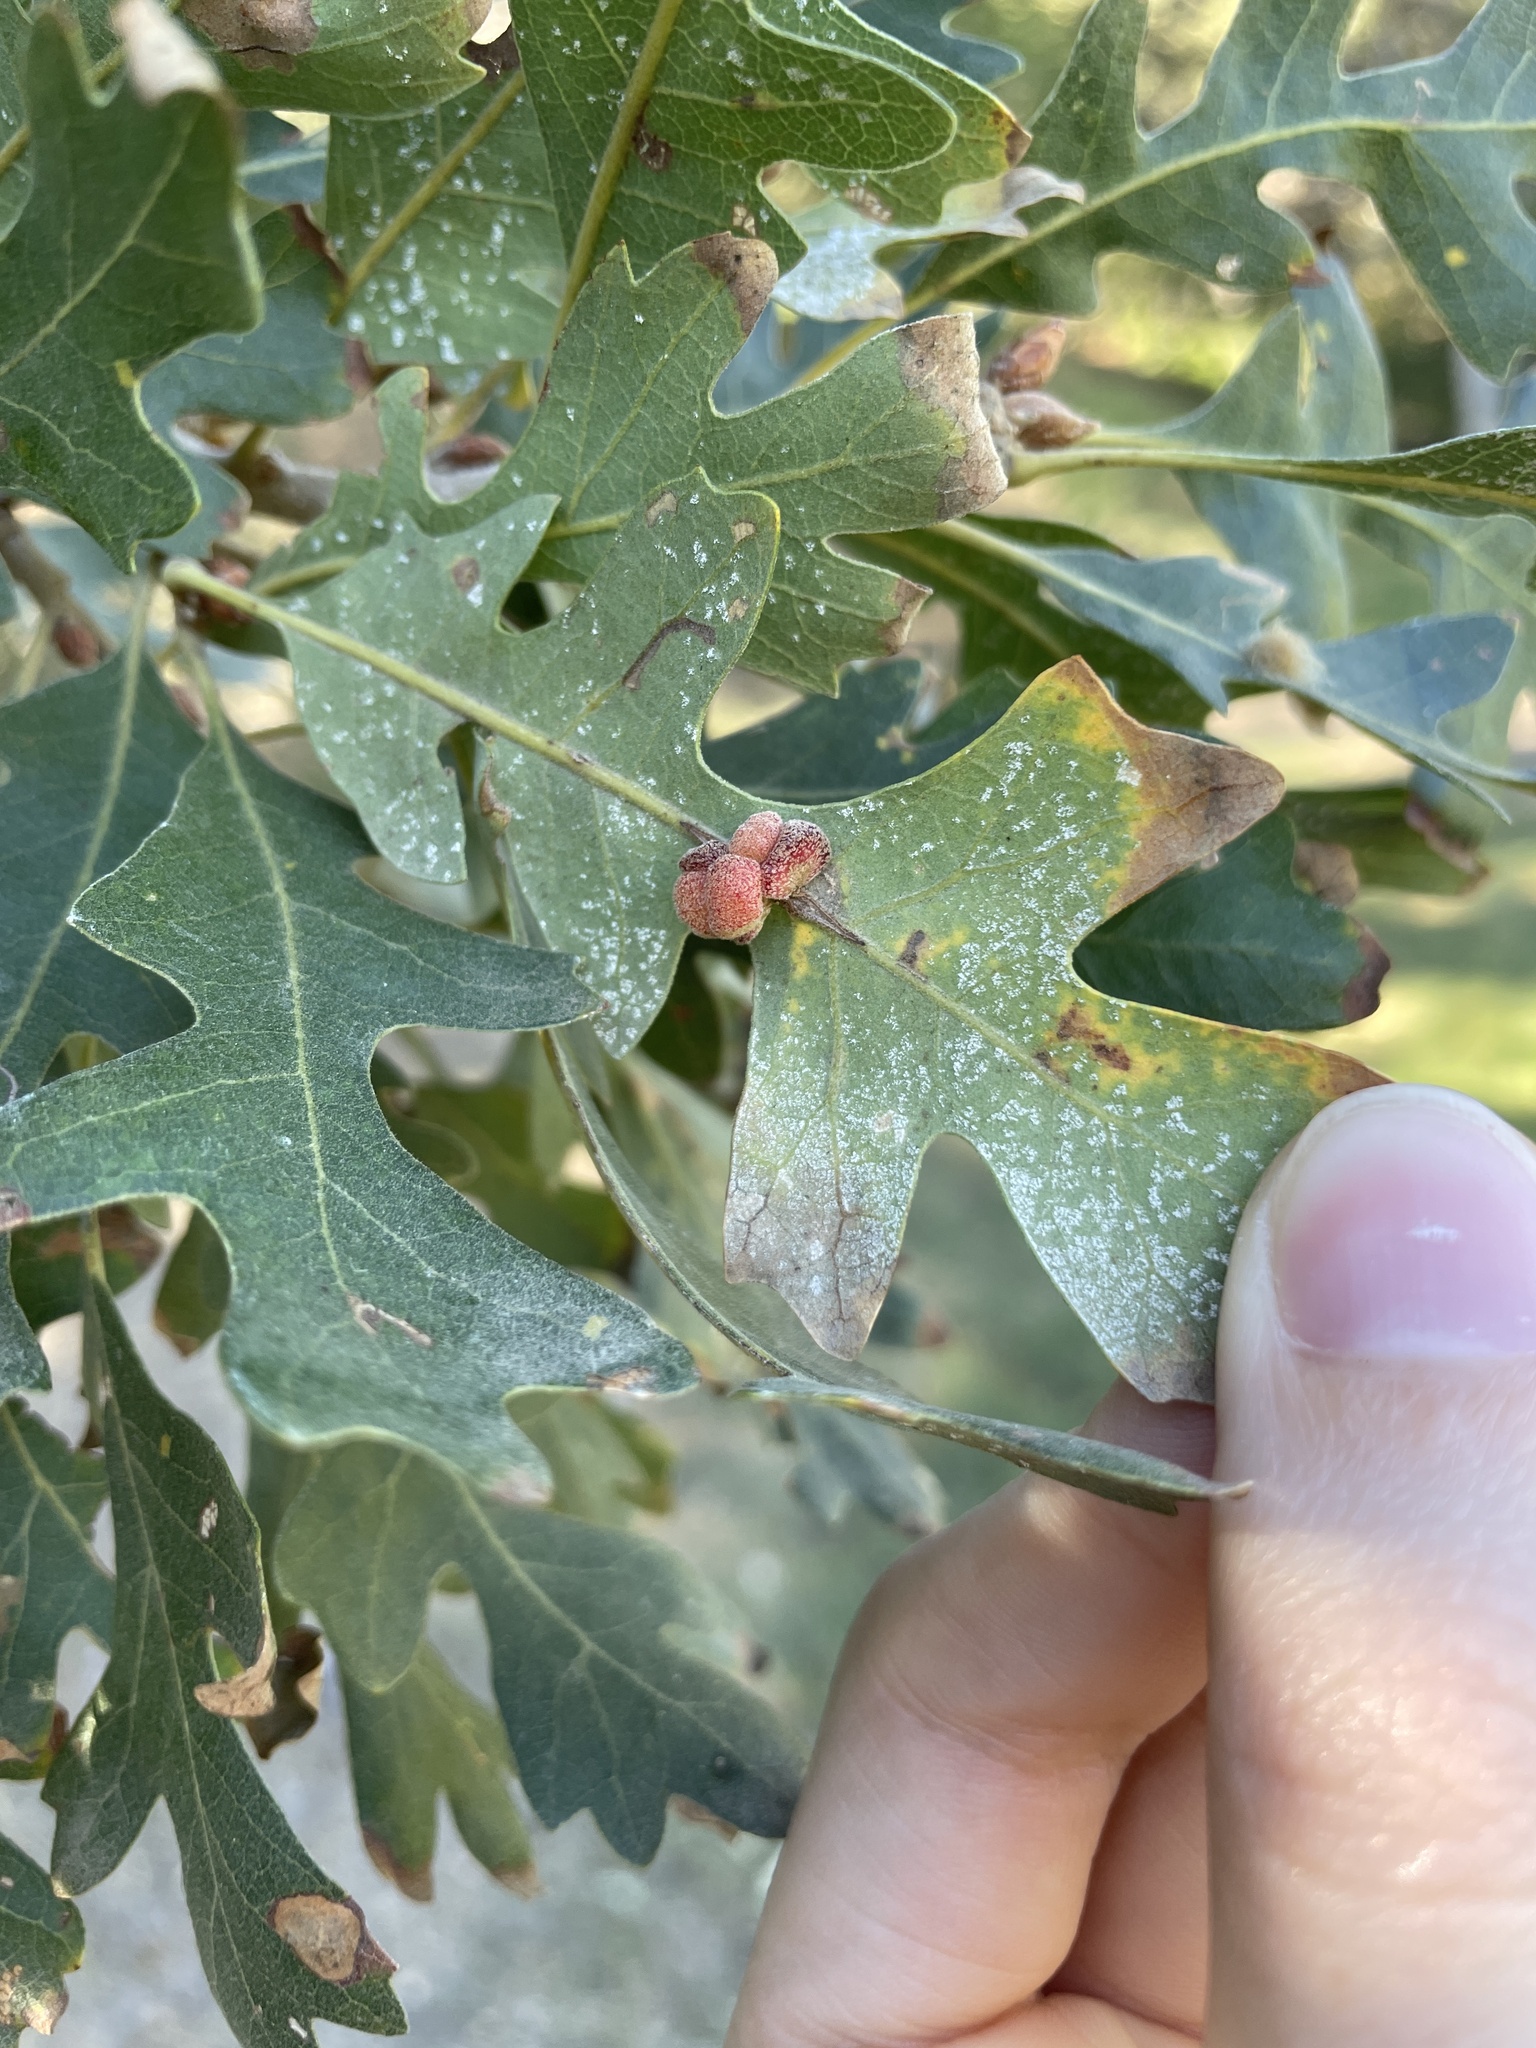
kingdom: Animalia
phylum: Arthropoda
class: Insecta
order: Hymenoptera
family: Cynipidae
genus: Andricus
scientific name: Andricus
